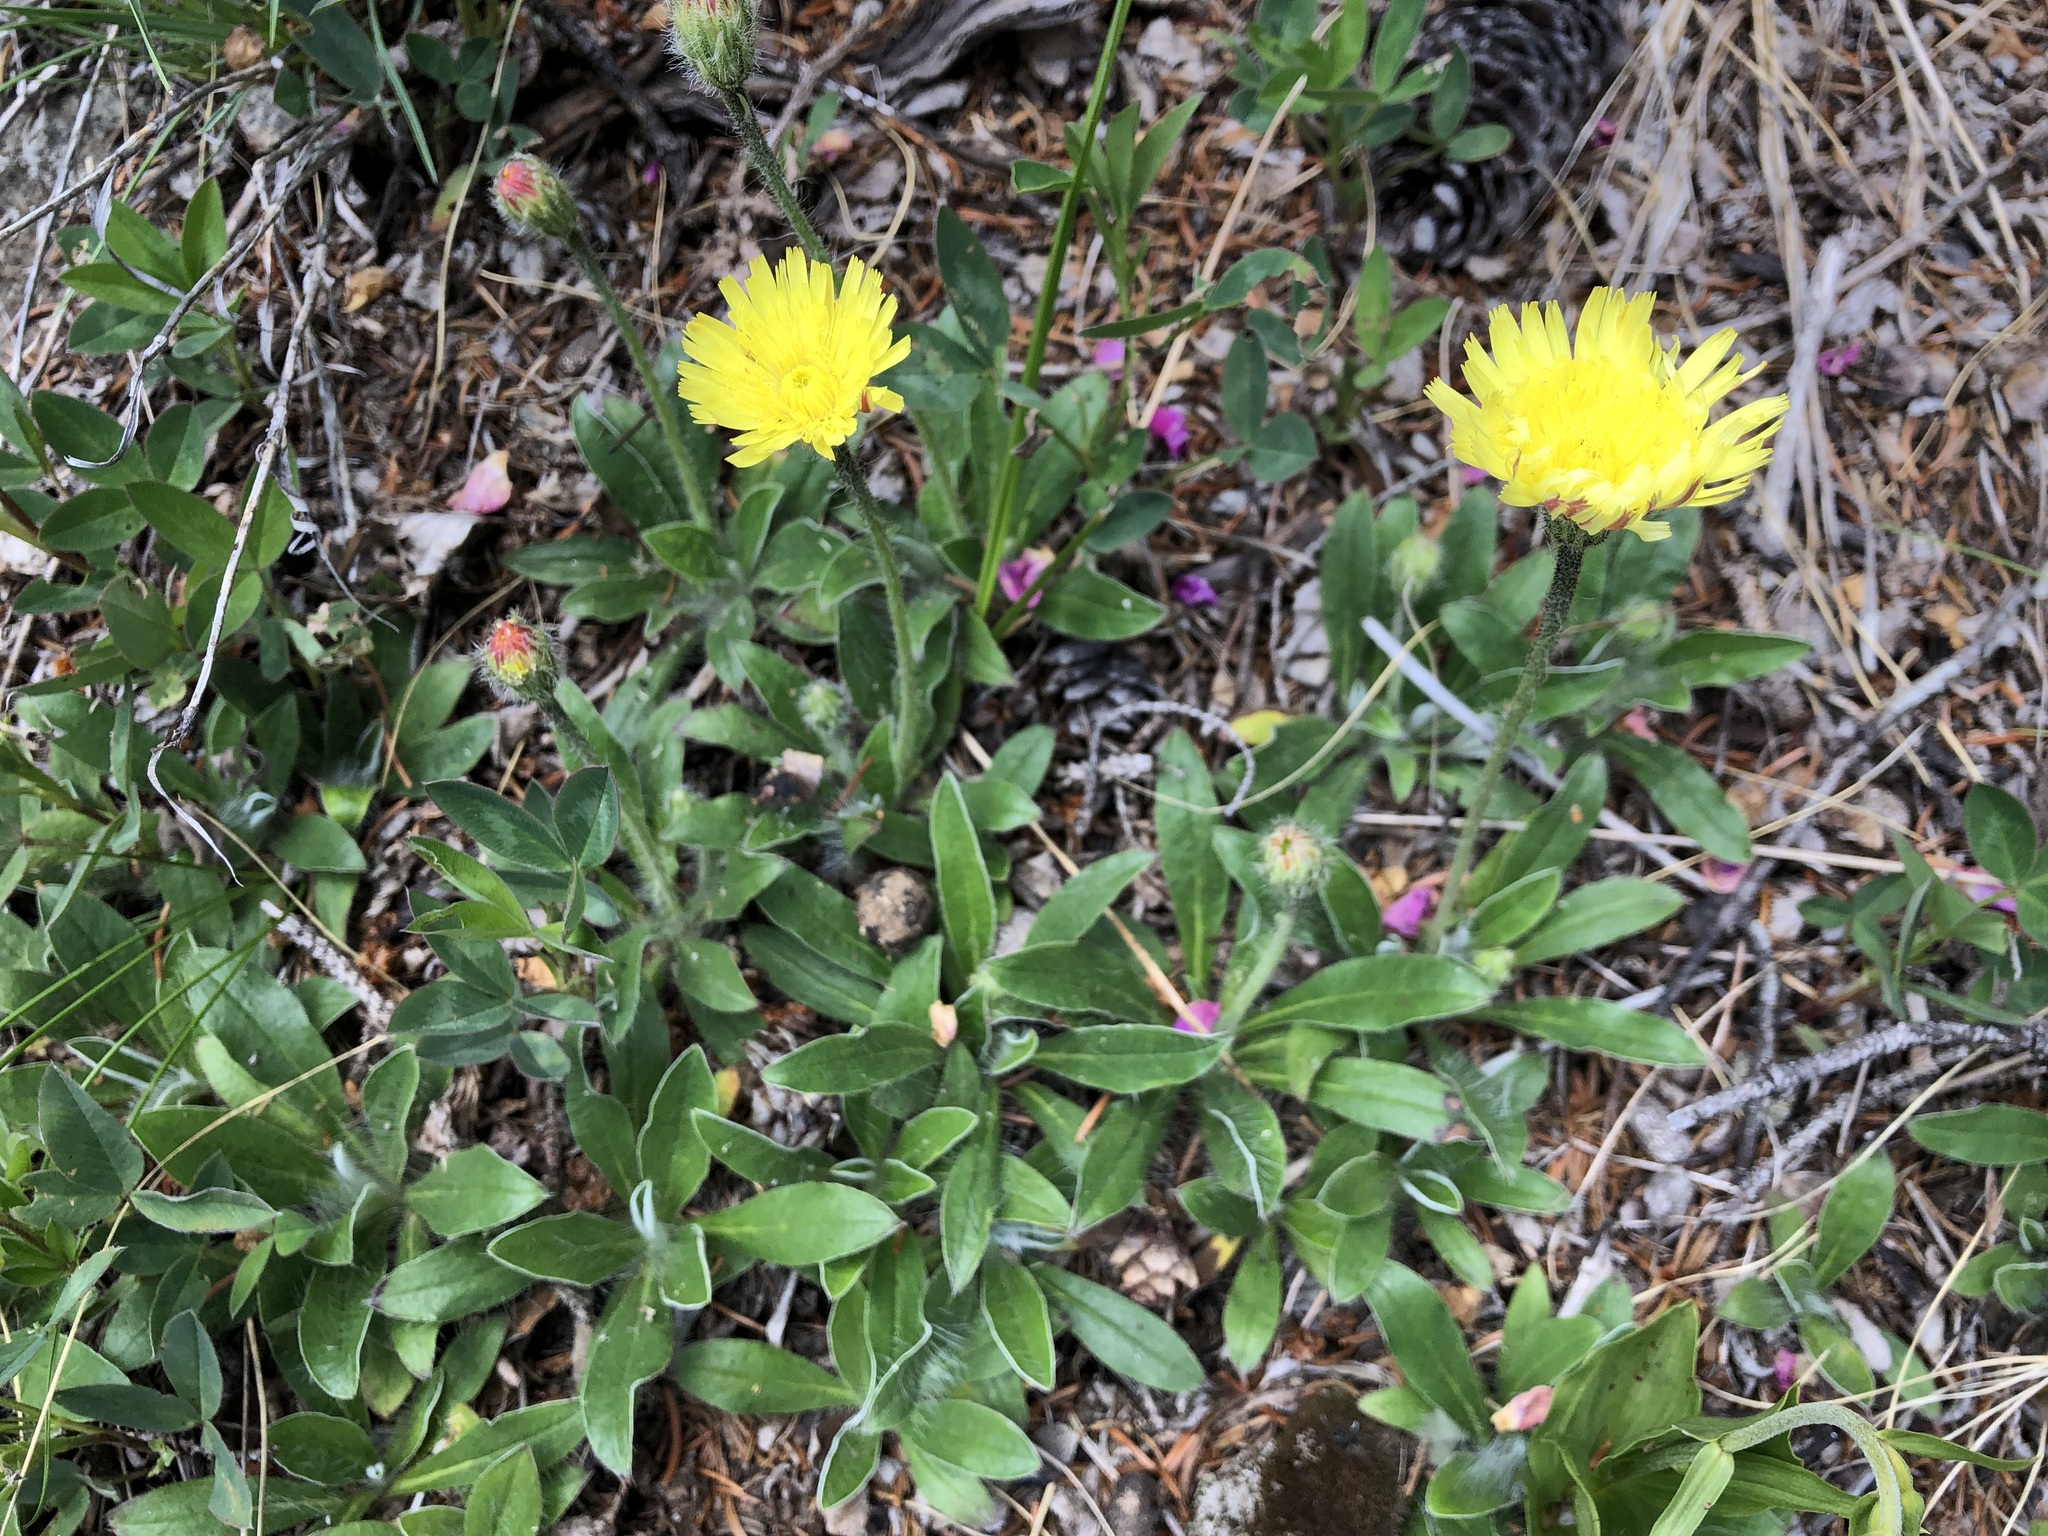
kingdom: Plantae
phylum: Tracheophyta
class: Magnoliopsida
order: Asterales
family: Asteraceae
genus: Pilosella
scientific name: Pilosella officinarum
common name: Mouse-ear hawkweed
